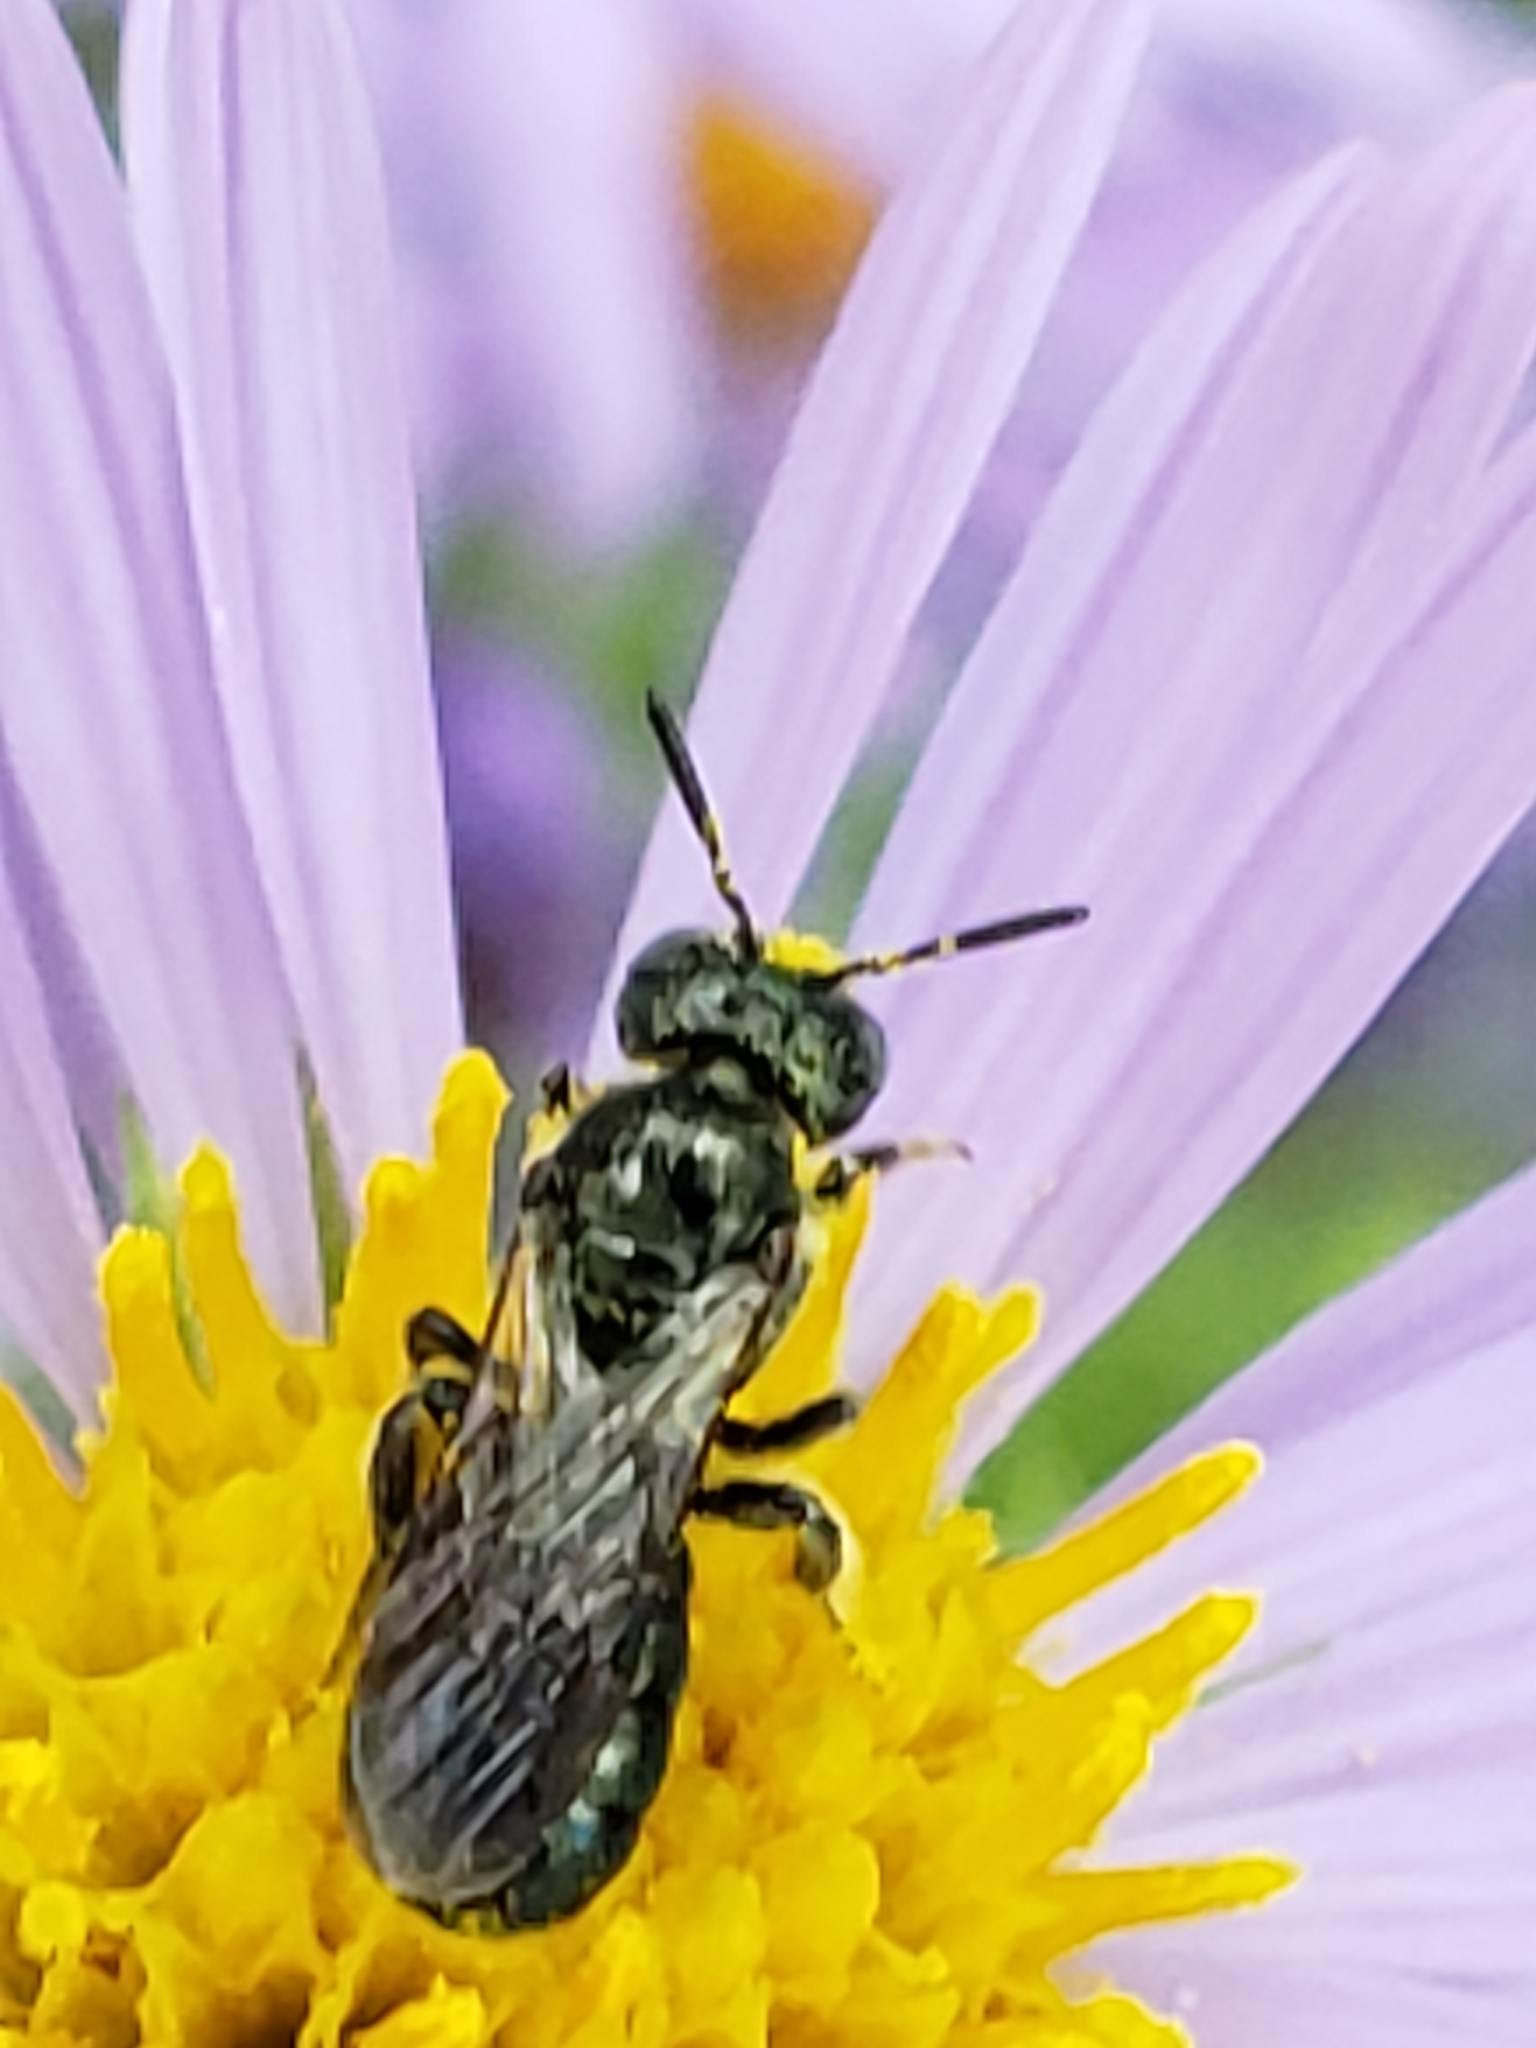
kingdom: Animalia
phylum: Arthropoda
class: Insecta
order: Hymenoptera
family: Apidae
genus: Zadontomerus
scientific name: Zadontomerus
